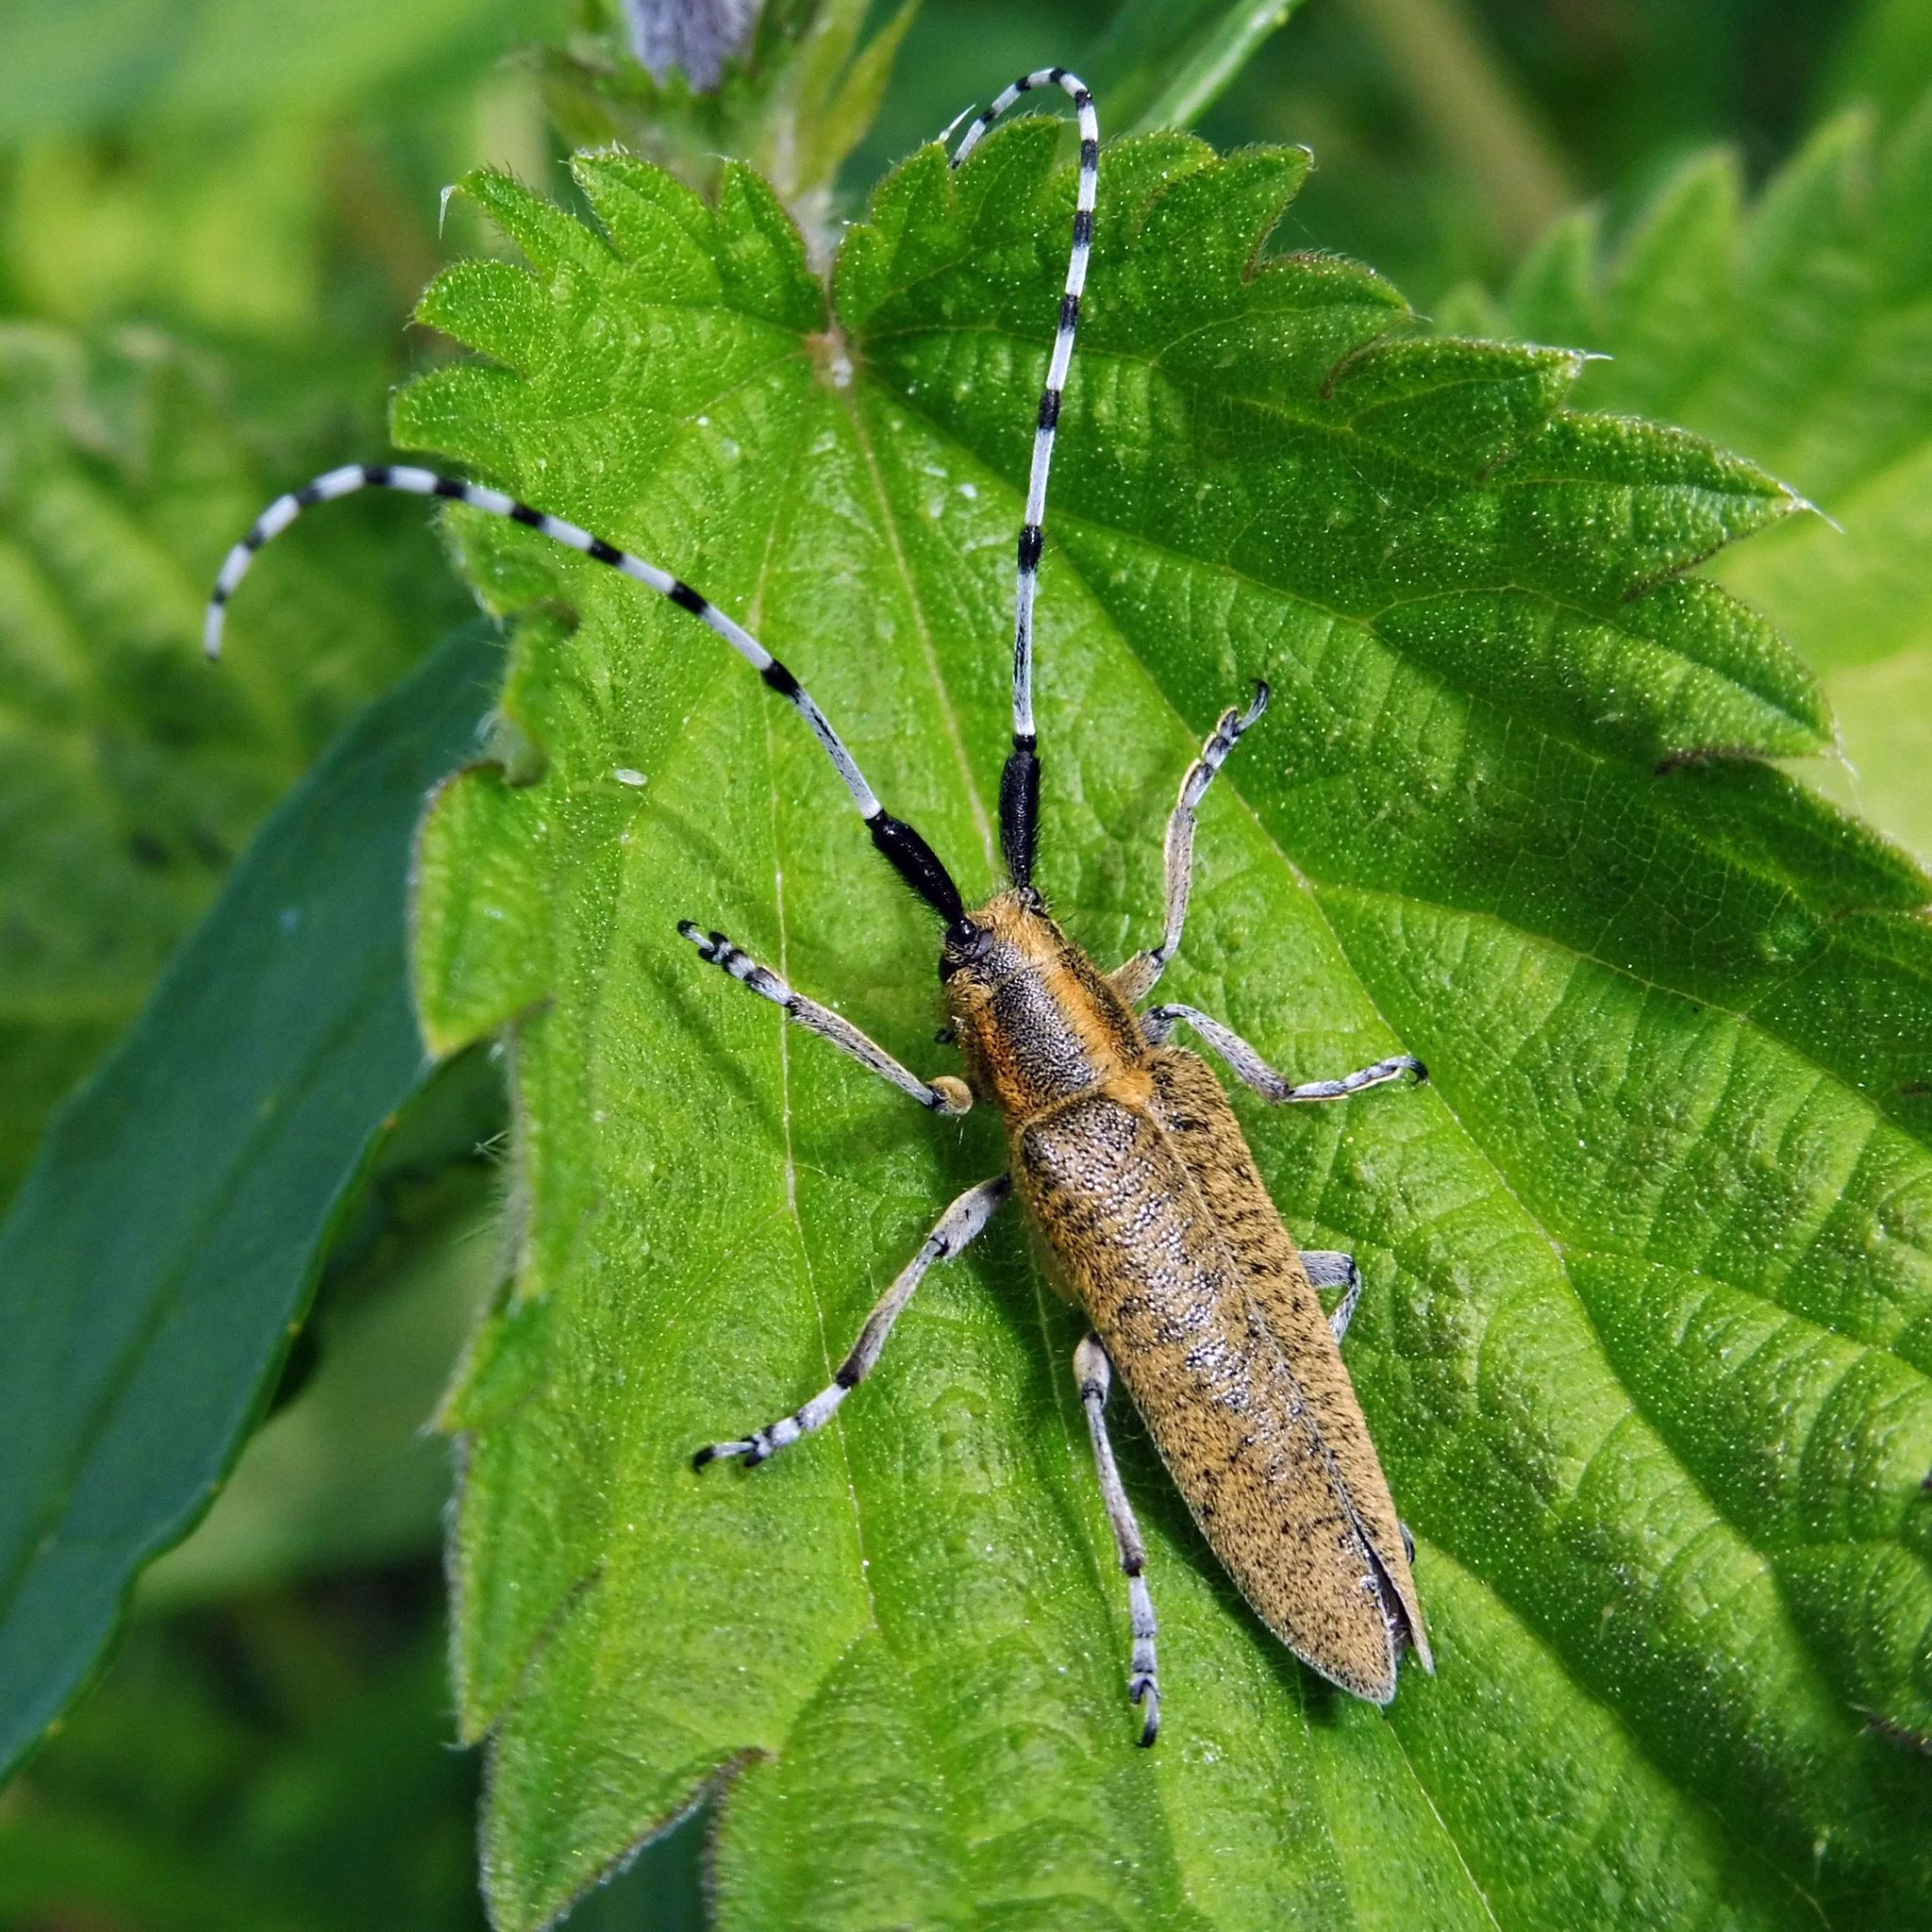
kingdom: Animalia
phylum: Arthropoda
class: Insecta
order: Coleoptera
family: Cerambycidae
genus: Agapanthia
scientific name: Agapanthia villosoviridescens
